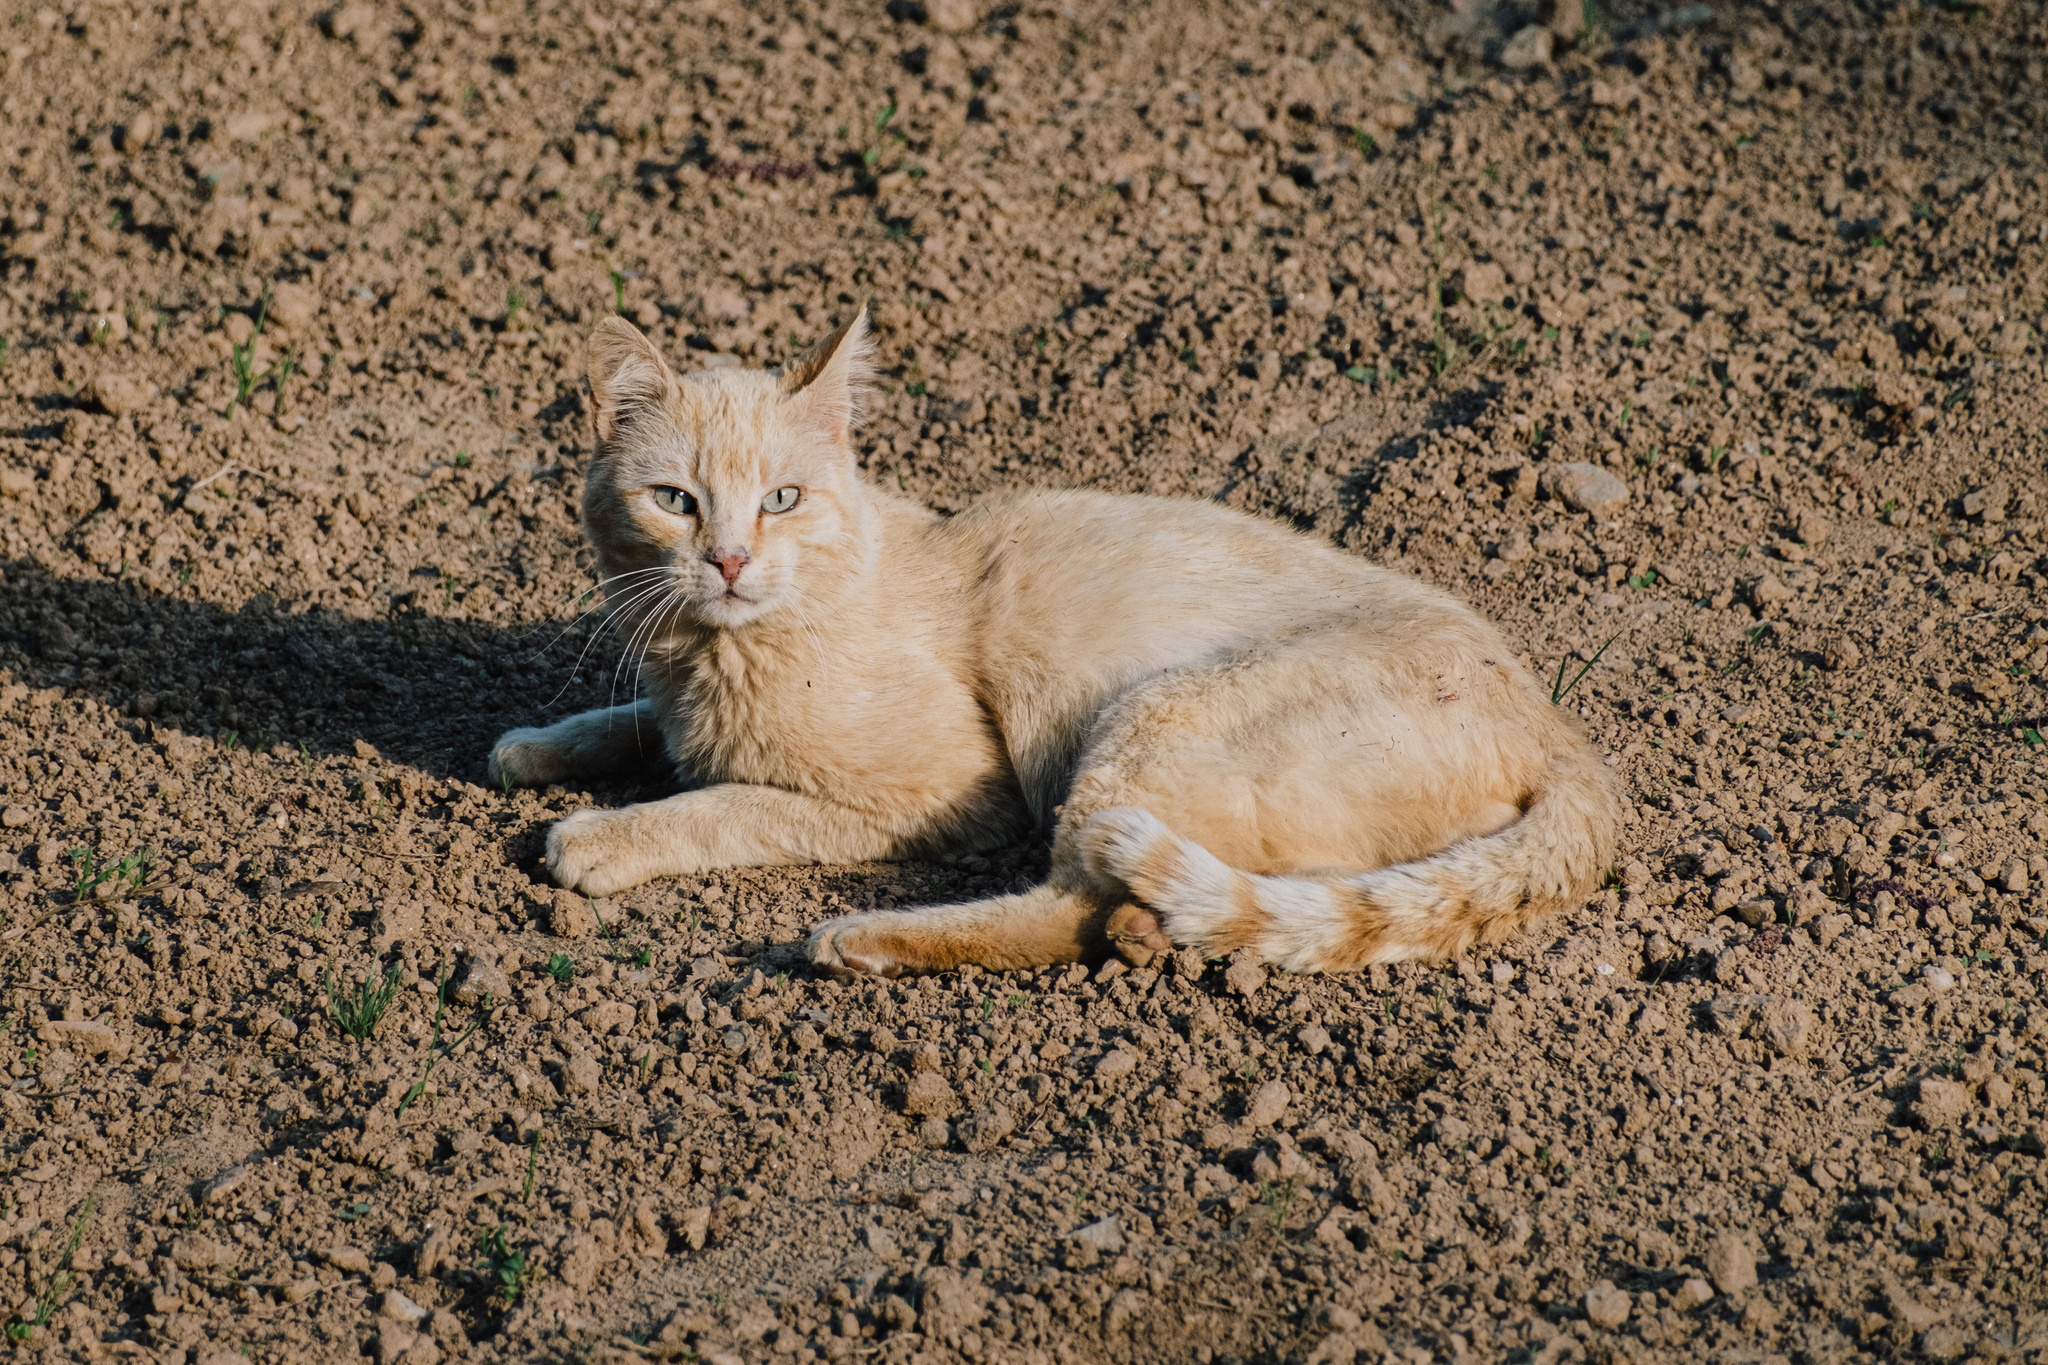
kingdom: Animalia
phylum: Chordata
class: Mammalia
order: Carnivora
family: Felidae
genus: Felis
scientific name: Felis catus
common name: Domestic cat
